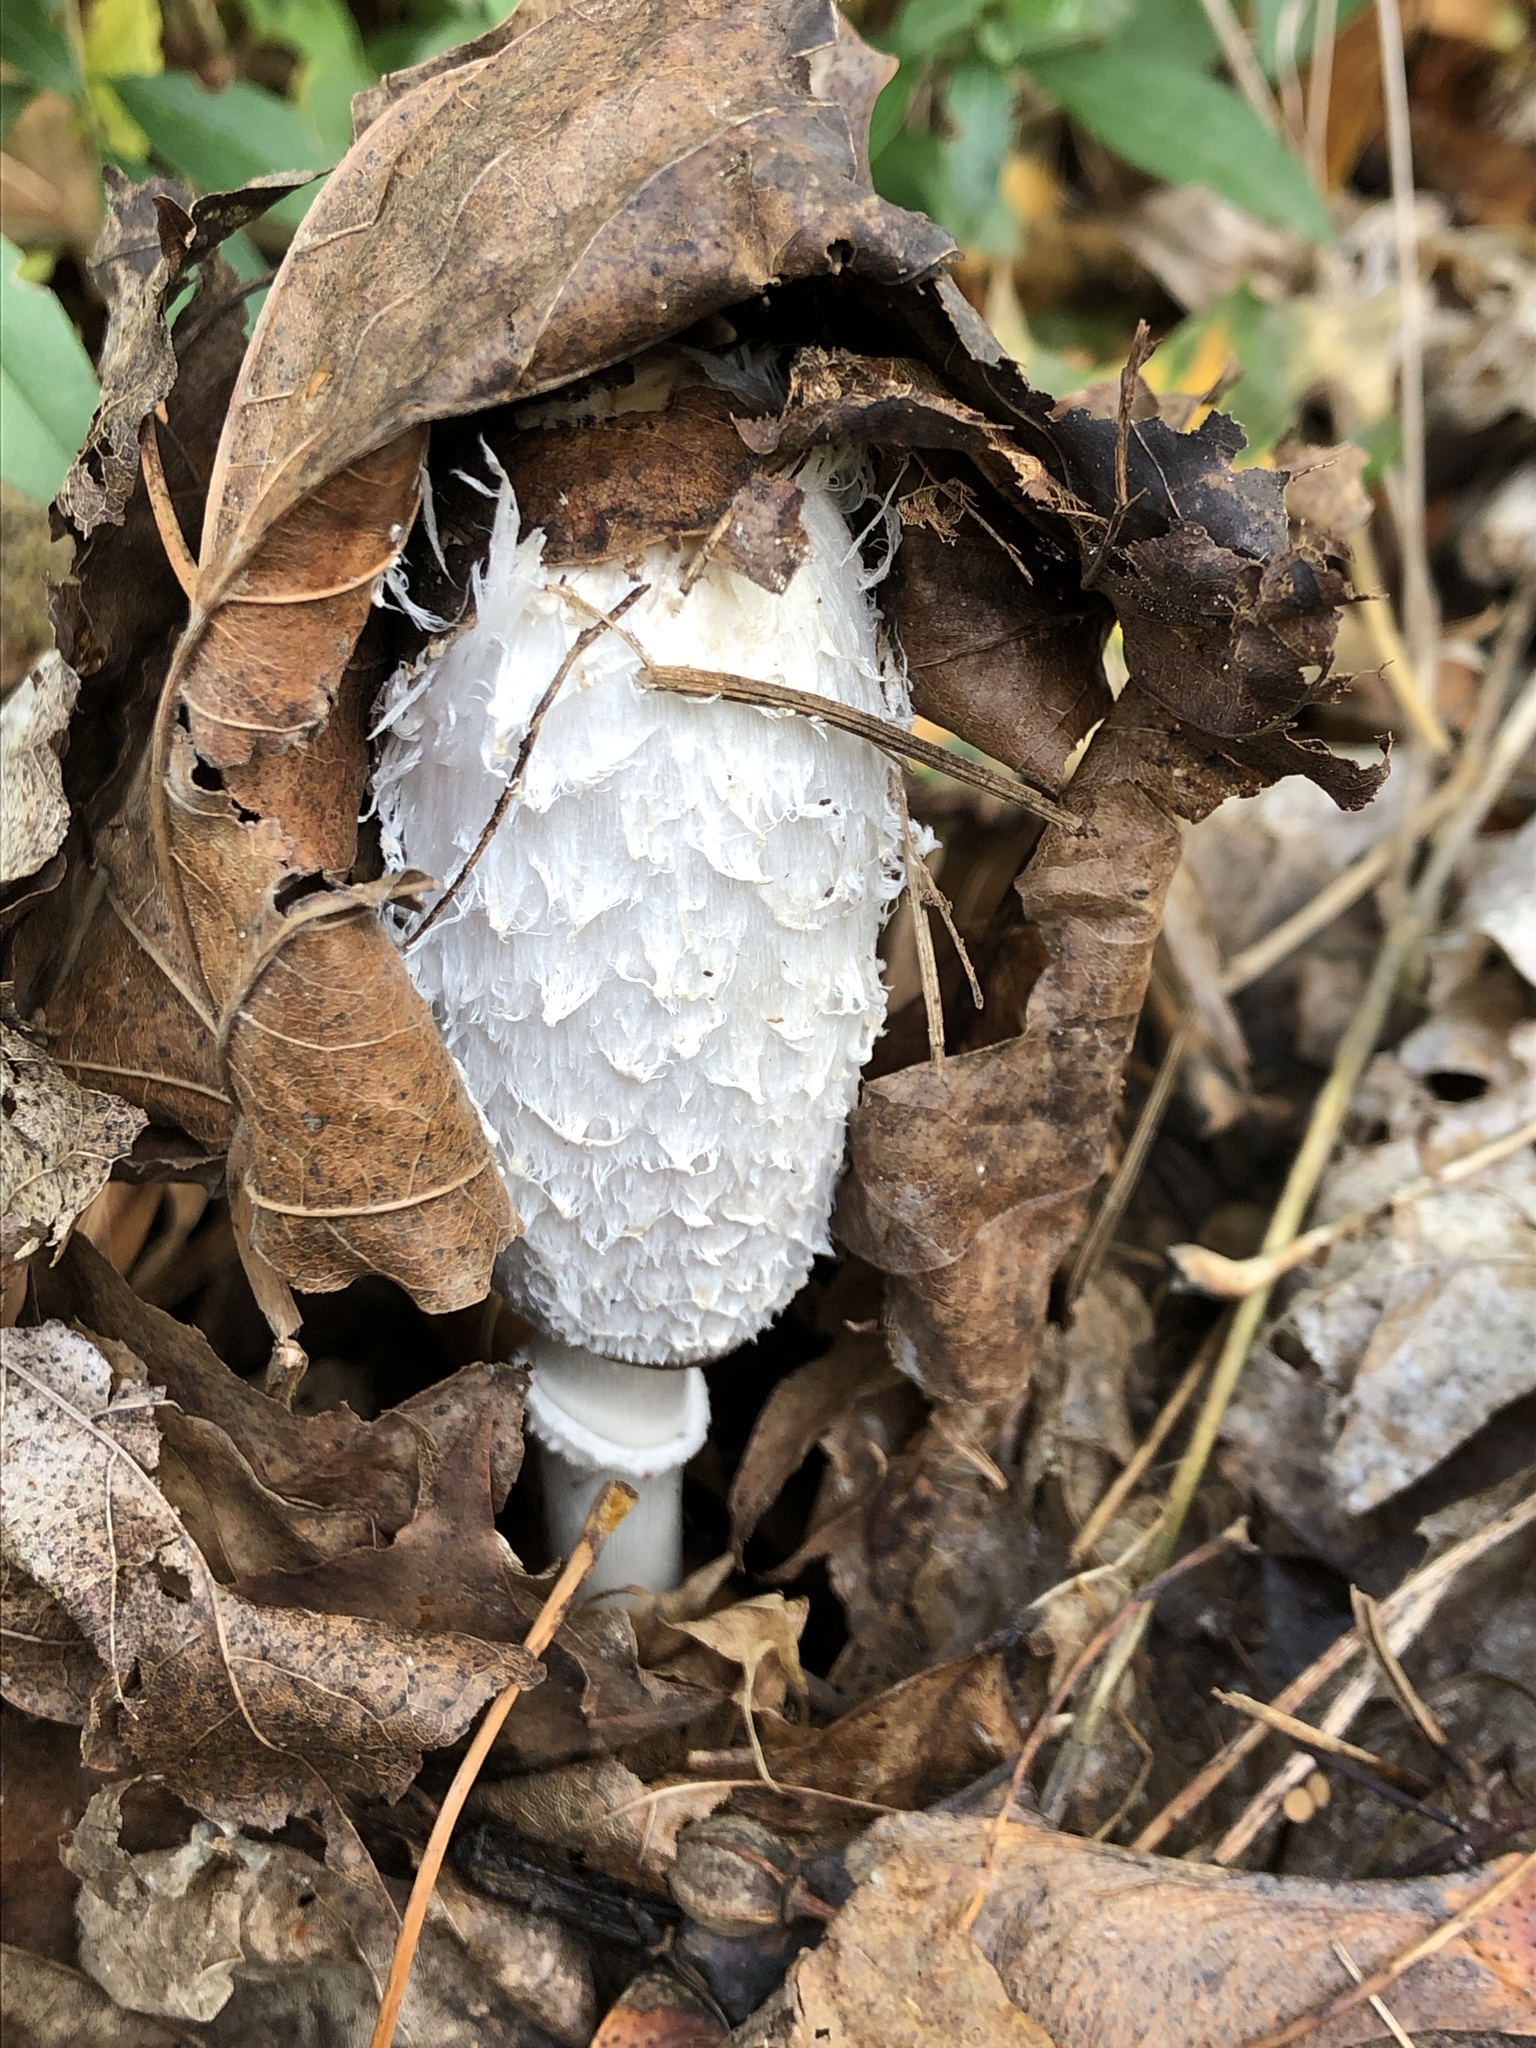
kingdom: Fungi
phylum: Basidiomycota
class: Agaricomycetes
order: Agaricales
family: Agaricaceae
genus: Coprinus
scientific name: Coprinus comatus
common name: Lawyer's wig
